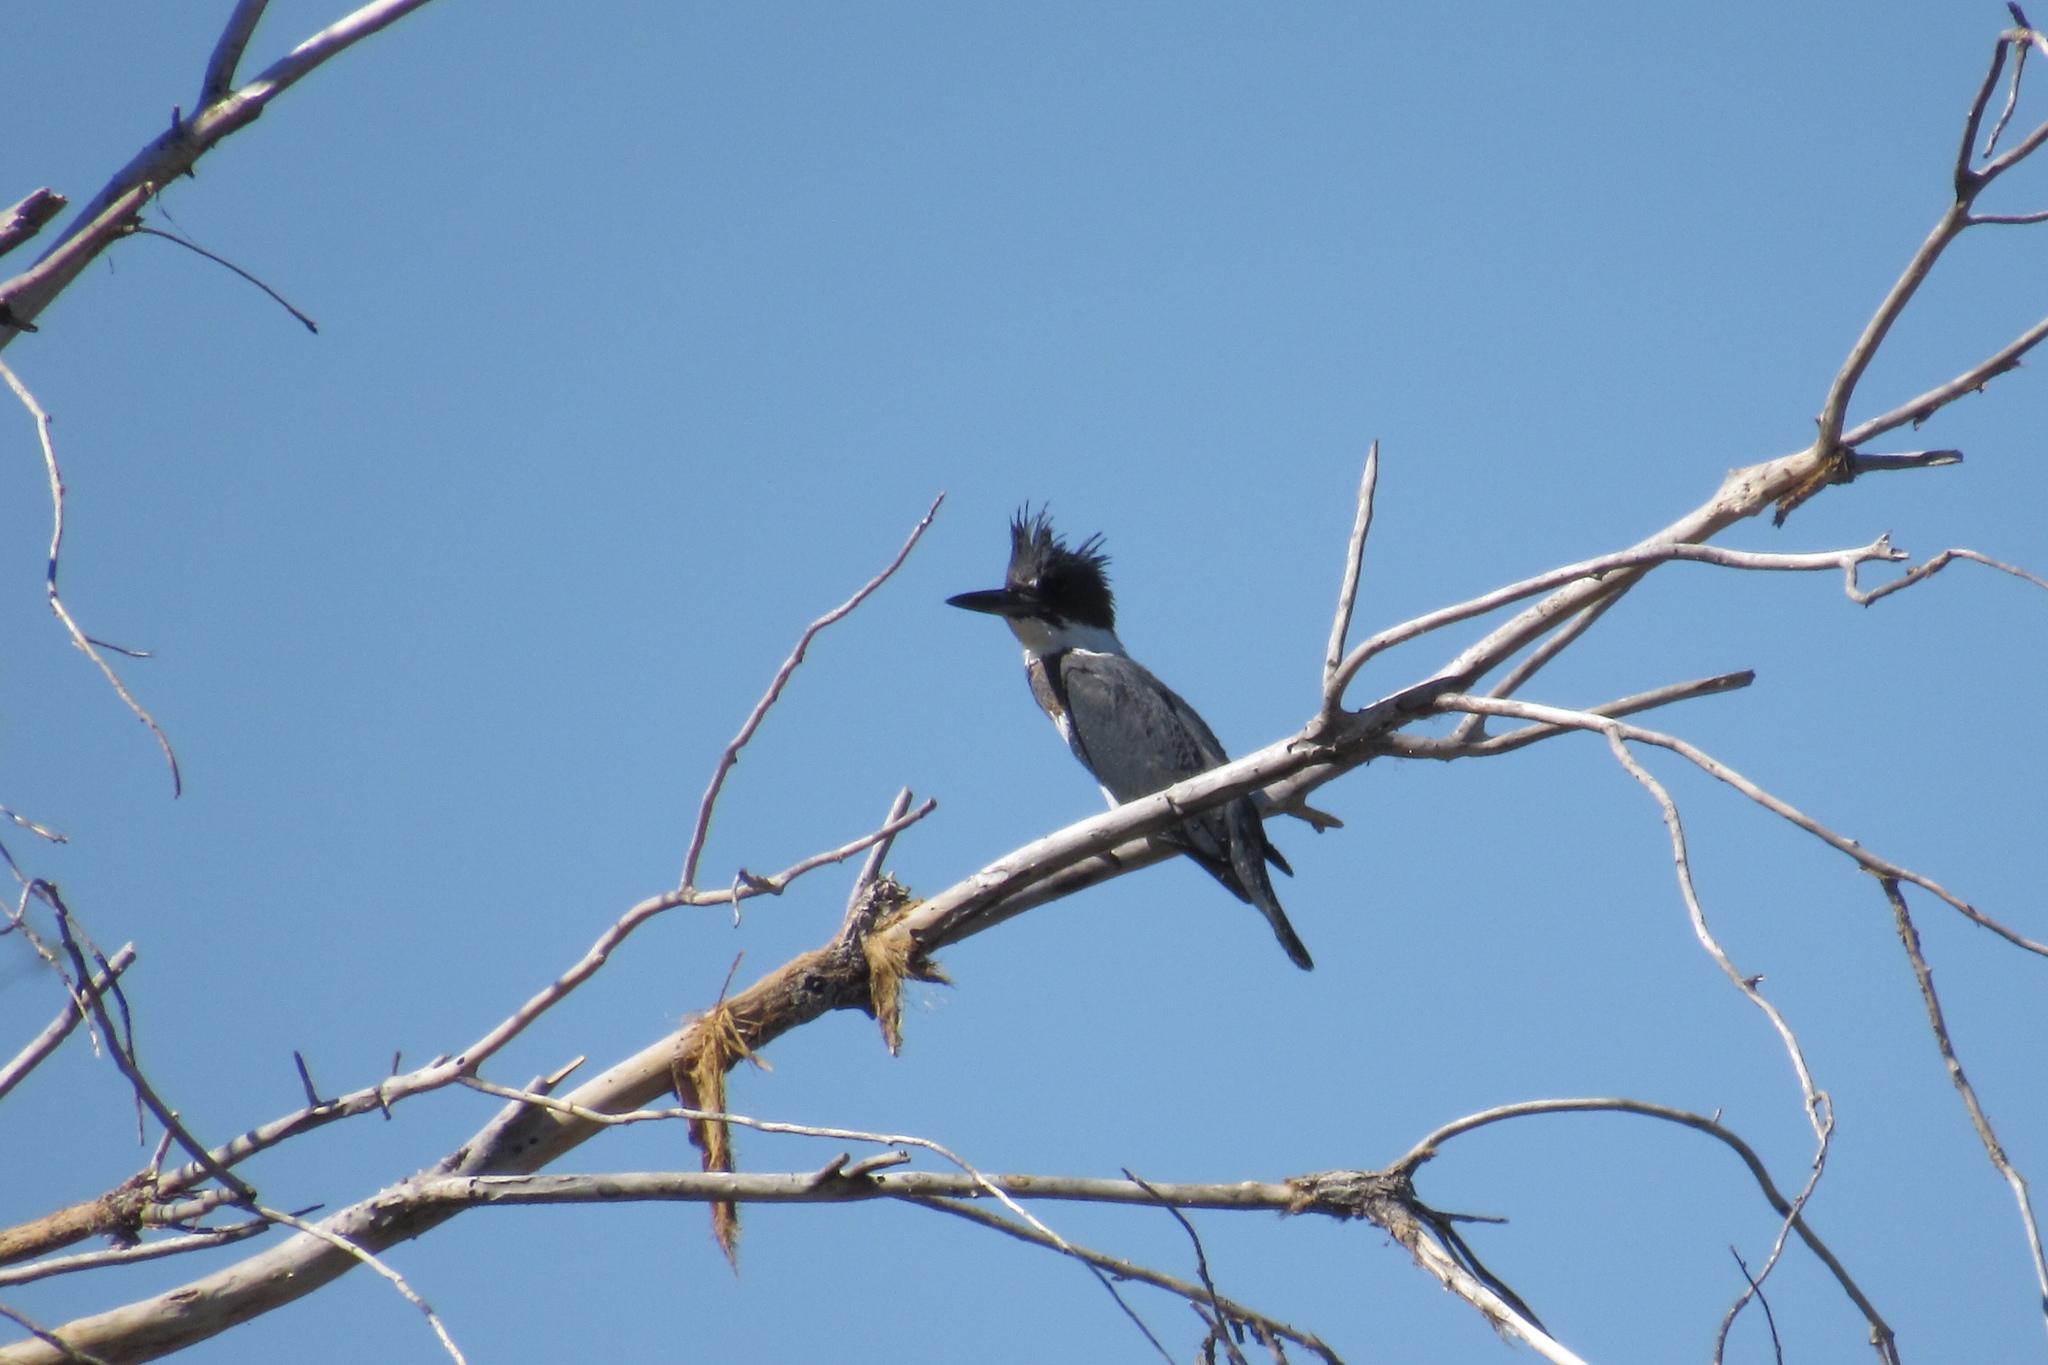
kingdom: Animalia
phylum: Chordata
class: Aves
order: Coraciiformes
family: Alcedinidae
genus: Megaceryle
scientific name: Megaceryle alcyon
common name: Belted kingfisher
